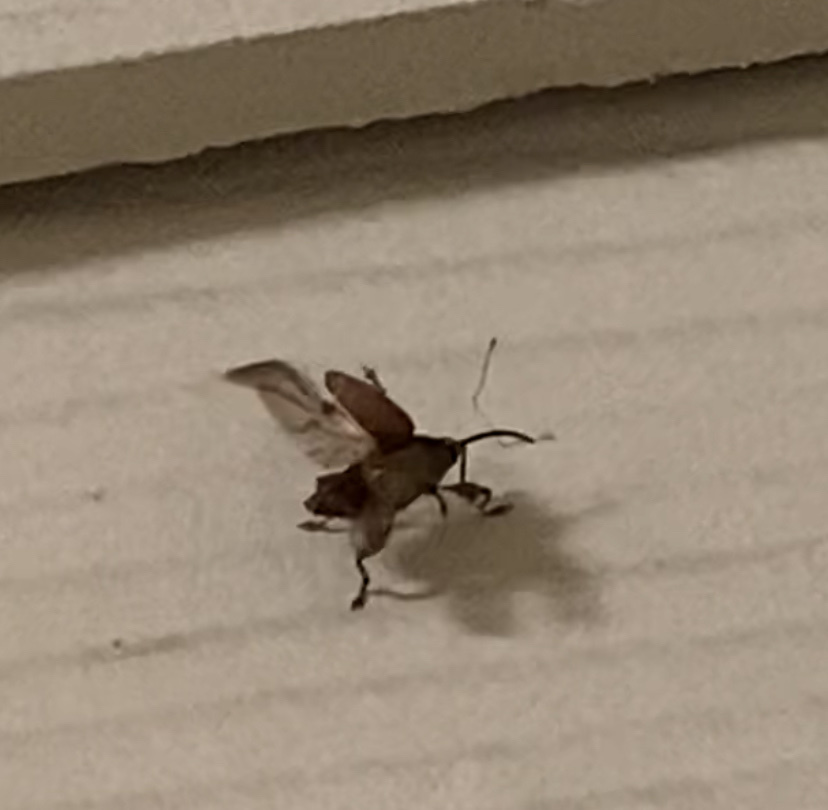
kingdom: Animalia
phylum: Arthropoda
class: Insecta
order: Coleoptera
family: Curculionidae
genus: Curculio
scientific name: Curculio
